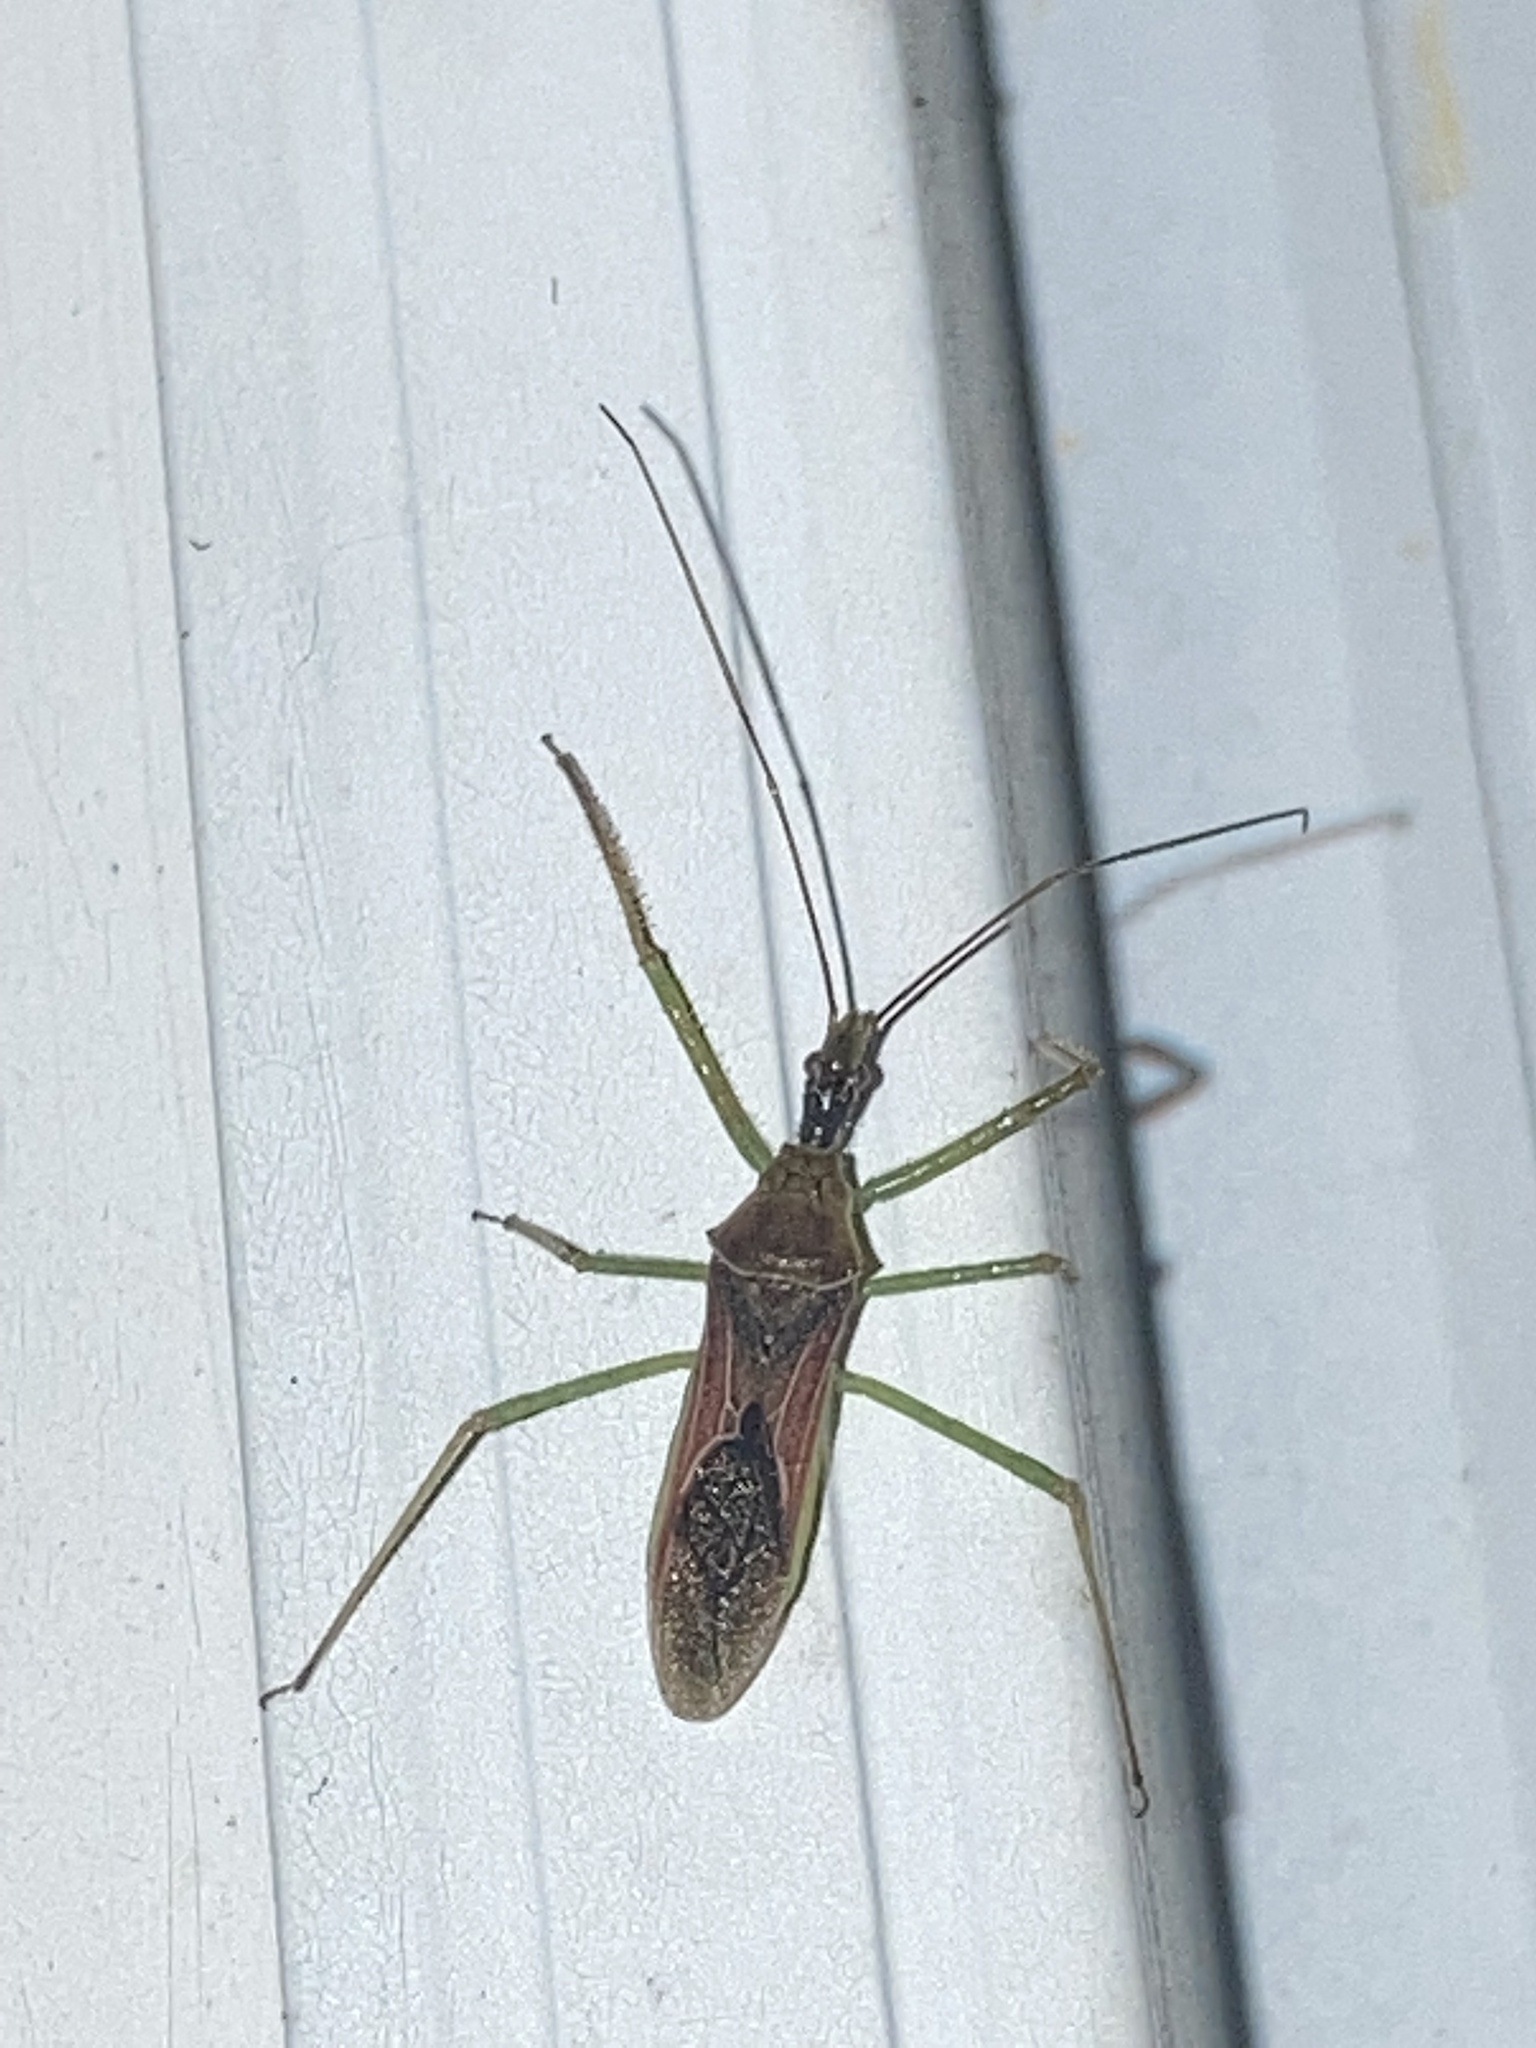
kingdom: Animalia
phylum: Arthropoda
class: Insecta
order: Hemiptera
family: Reduviidae
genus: Zelus
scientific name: Zelus renardii
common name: Assassin bug
